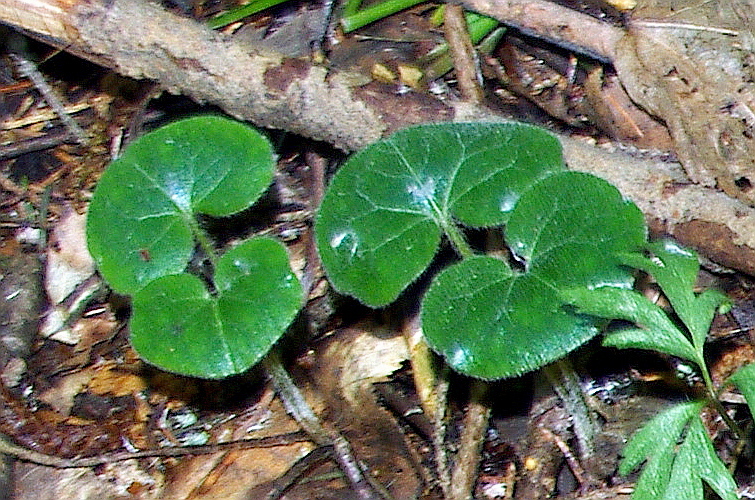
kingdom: Plantae
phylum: Tracheophyta
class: Magnoliopsida
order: Piperales
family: Aristolochiaceae
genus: Asarum
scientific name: Asarum europaeum
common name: Asarabacca
